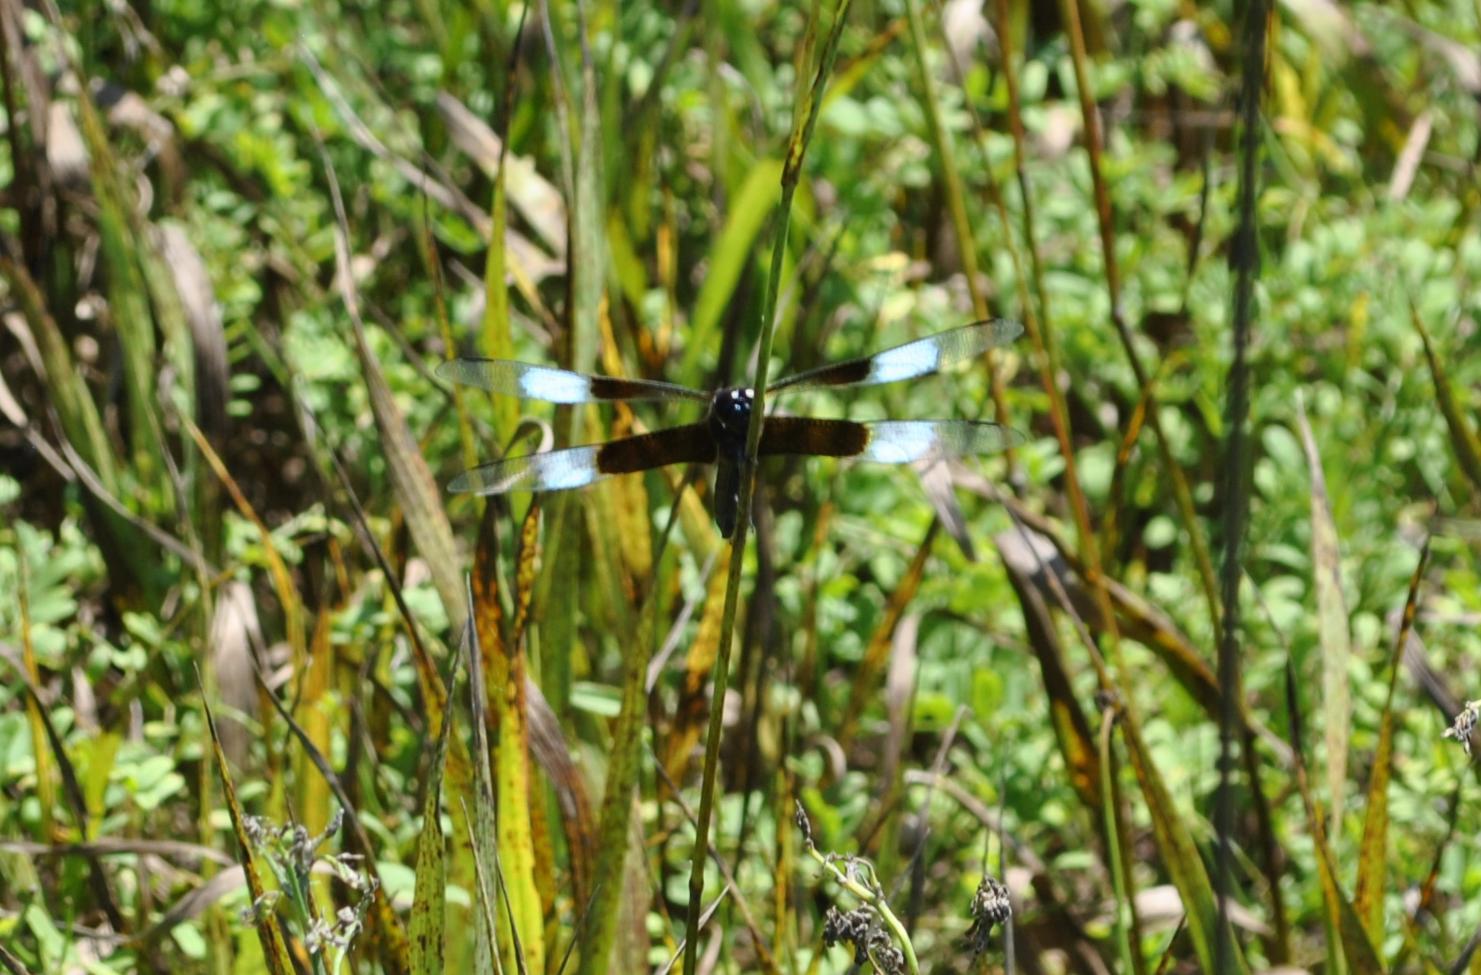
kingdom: Animalia
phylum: Arthropoda
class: Insecta
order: Odonata
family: Libellulidae
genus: Libellula
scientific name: Libellula luctuosa
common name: Widow skimmer
